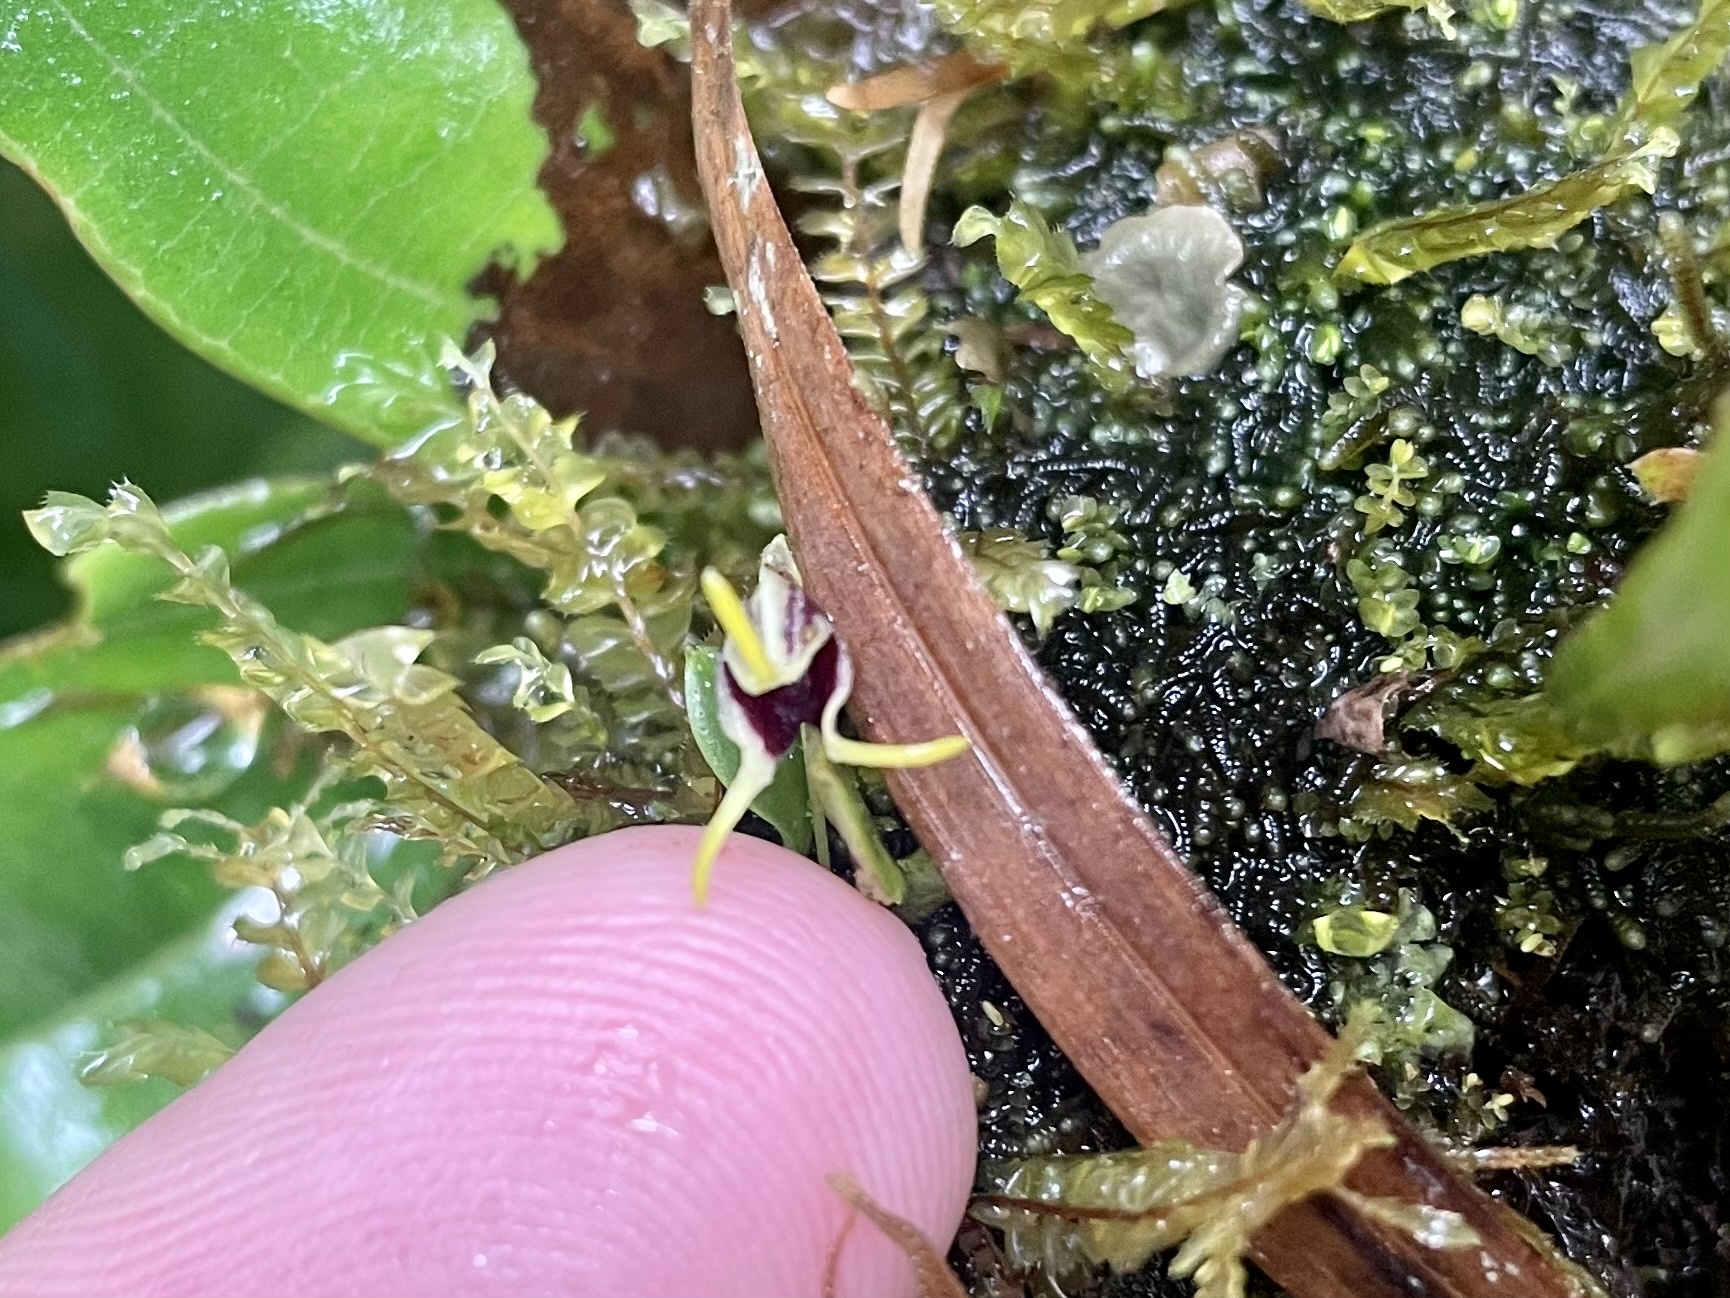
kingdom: Plantae
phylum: Tracheophyta
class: Liliopsida
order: Asparagales
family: Orchidaceae
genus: Diodonopsis
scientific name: Diodonopsis anachaeta
